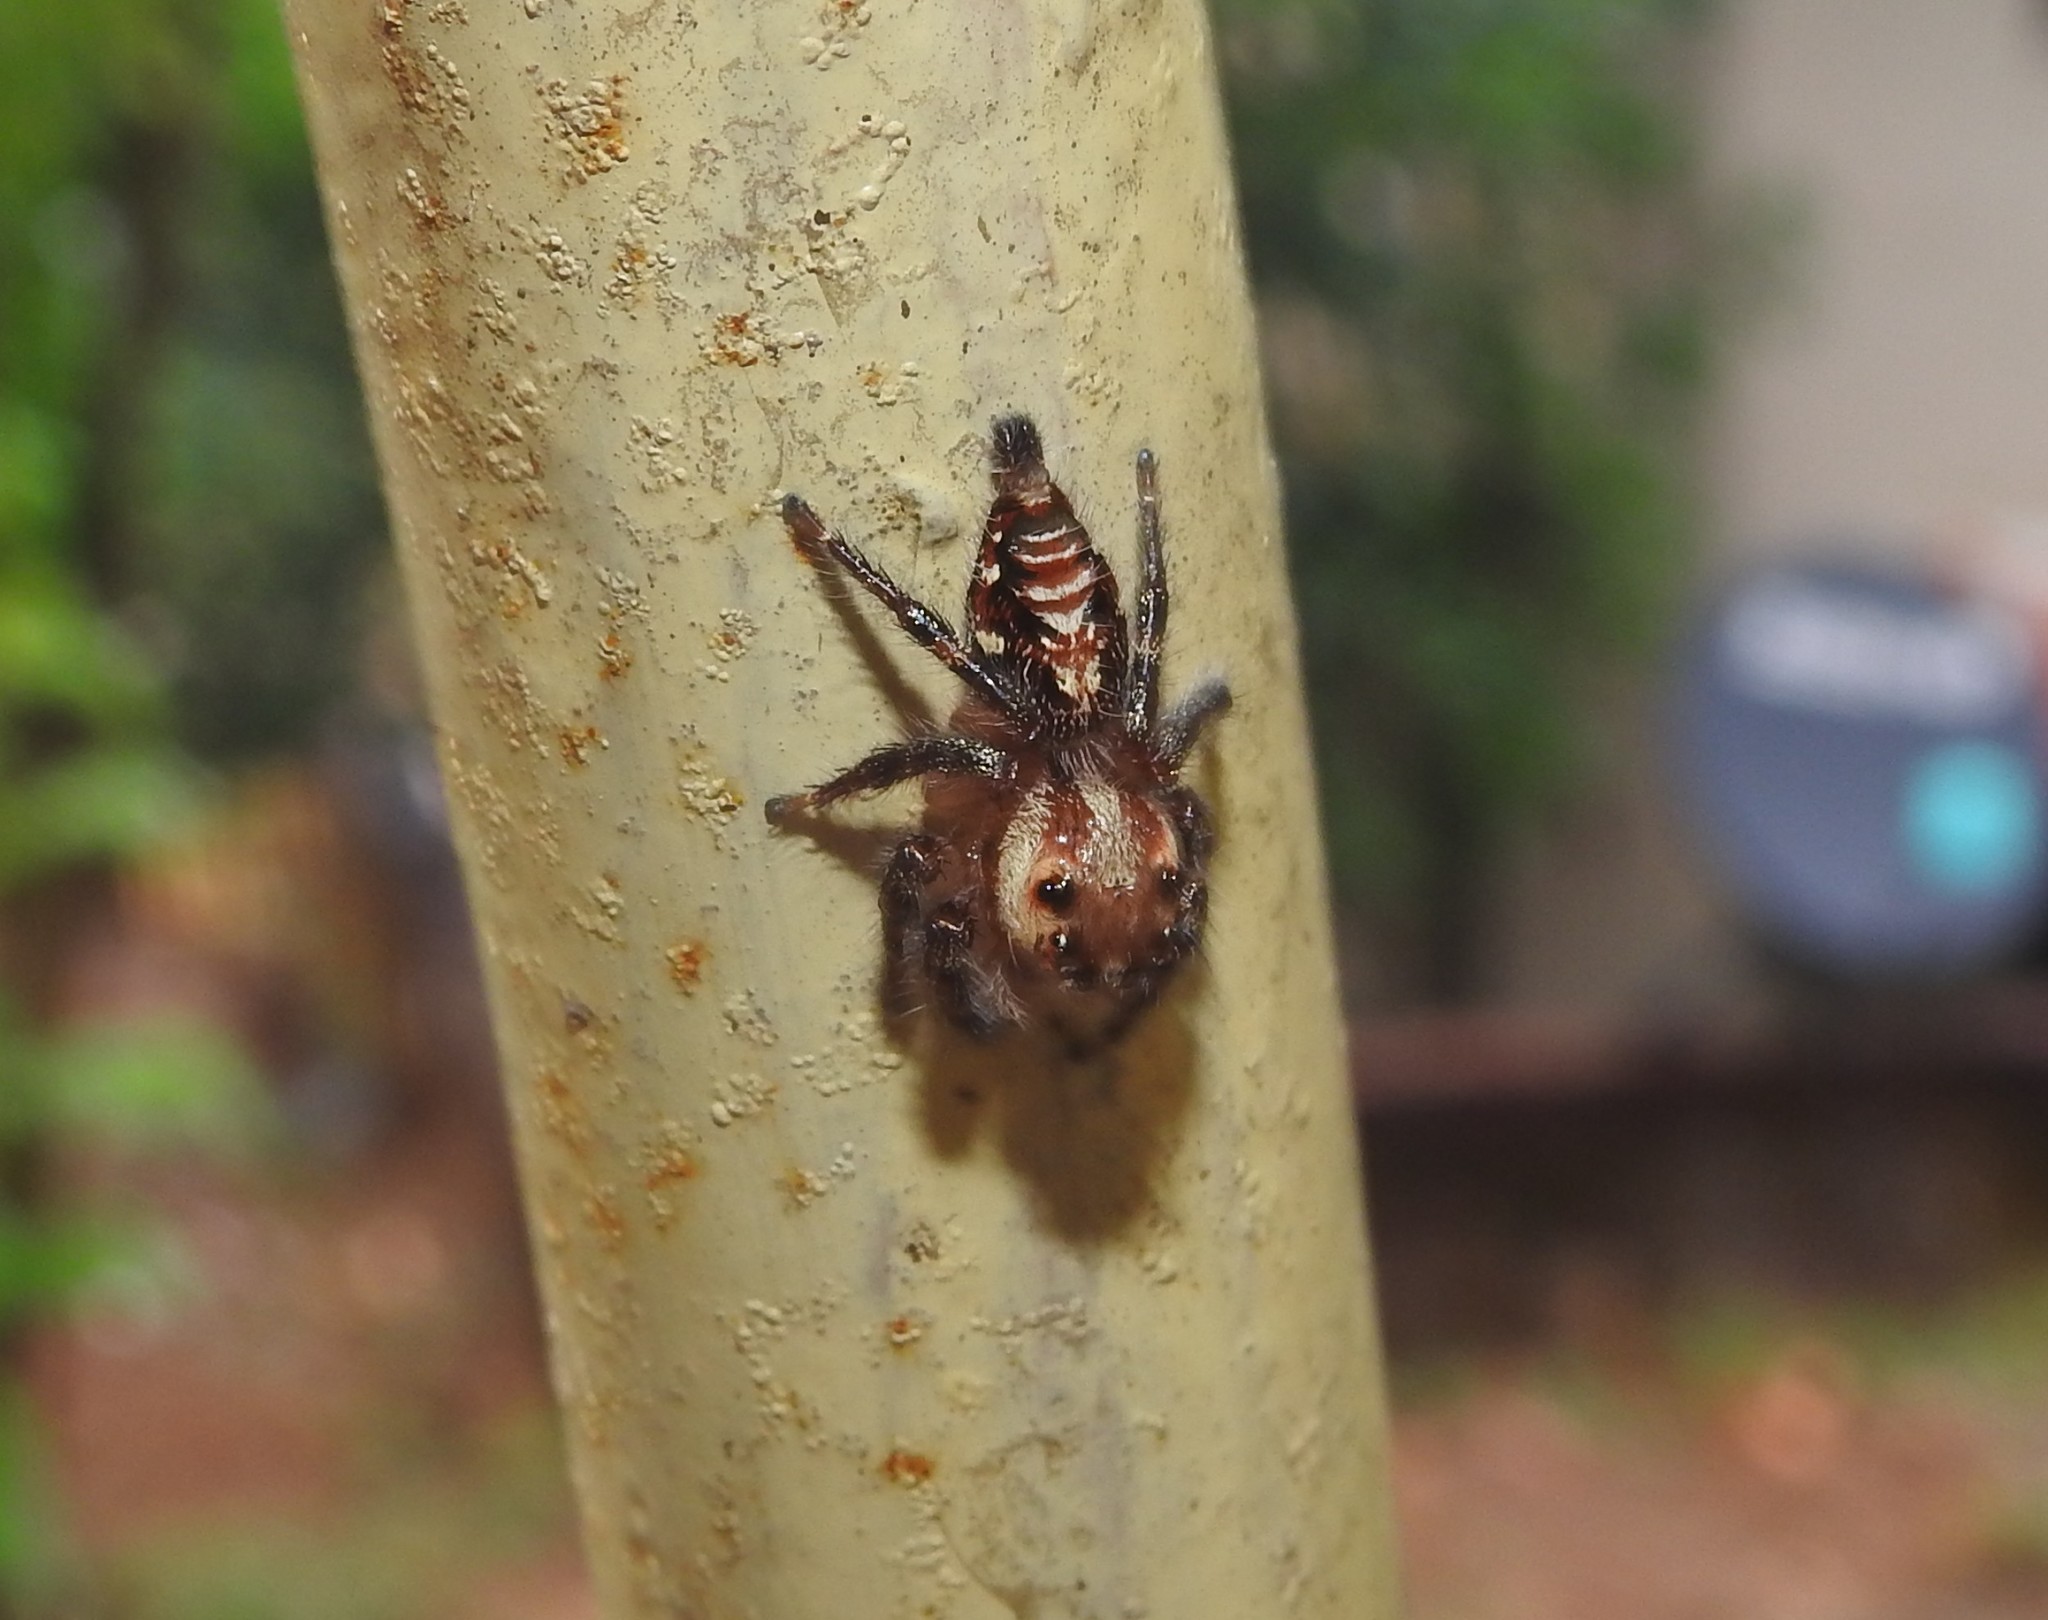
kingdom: Animalia
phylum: Arthropoda
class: Arachnida
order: Araneae
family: Salticidae
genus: Hyllus
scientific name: Hyllus semicupreus
